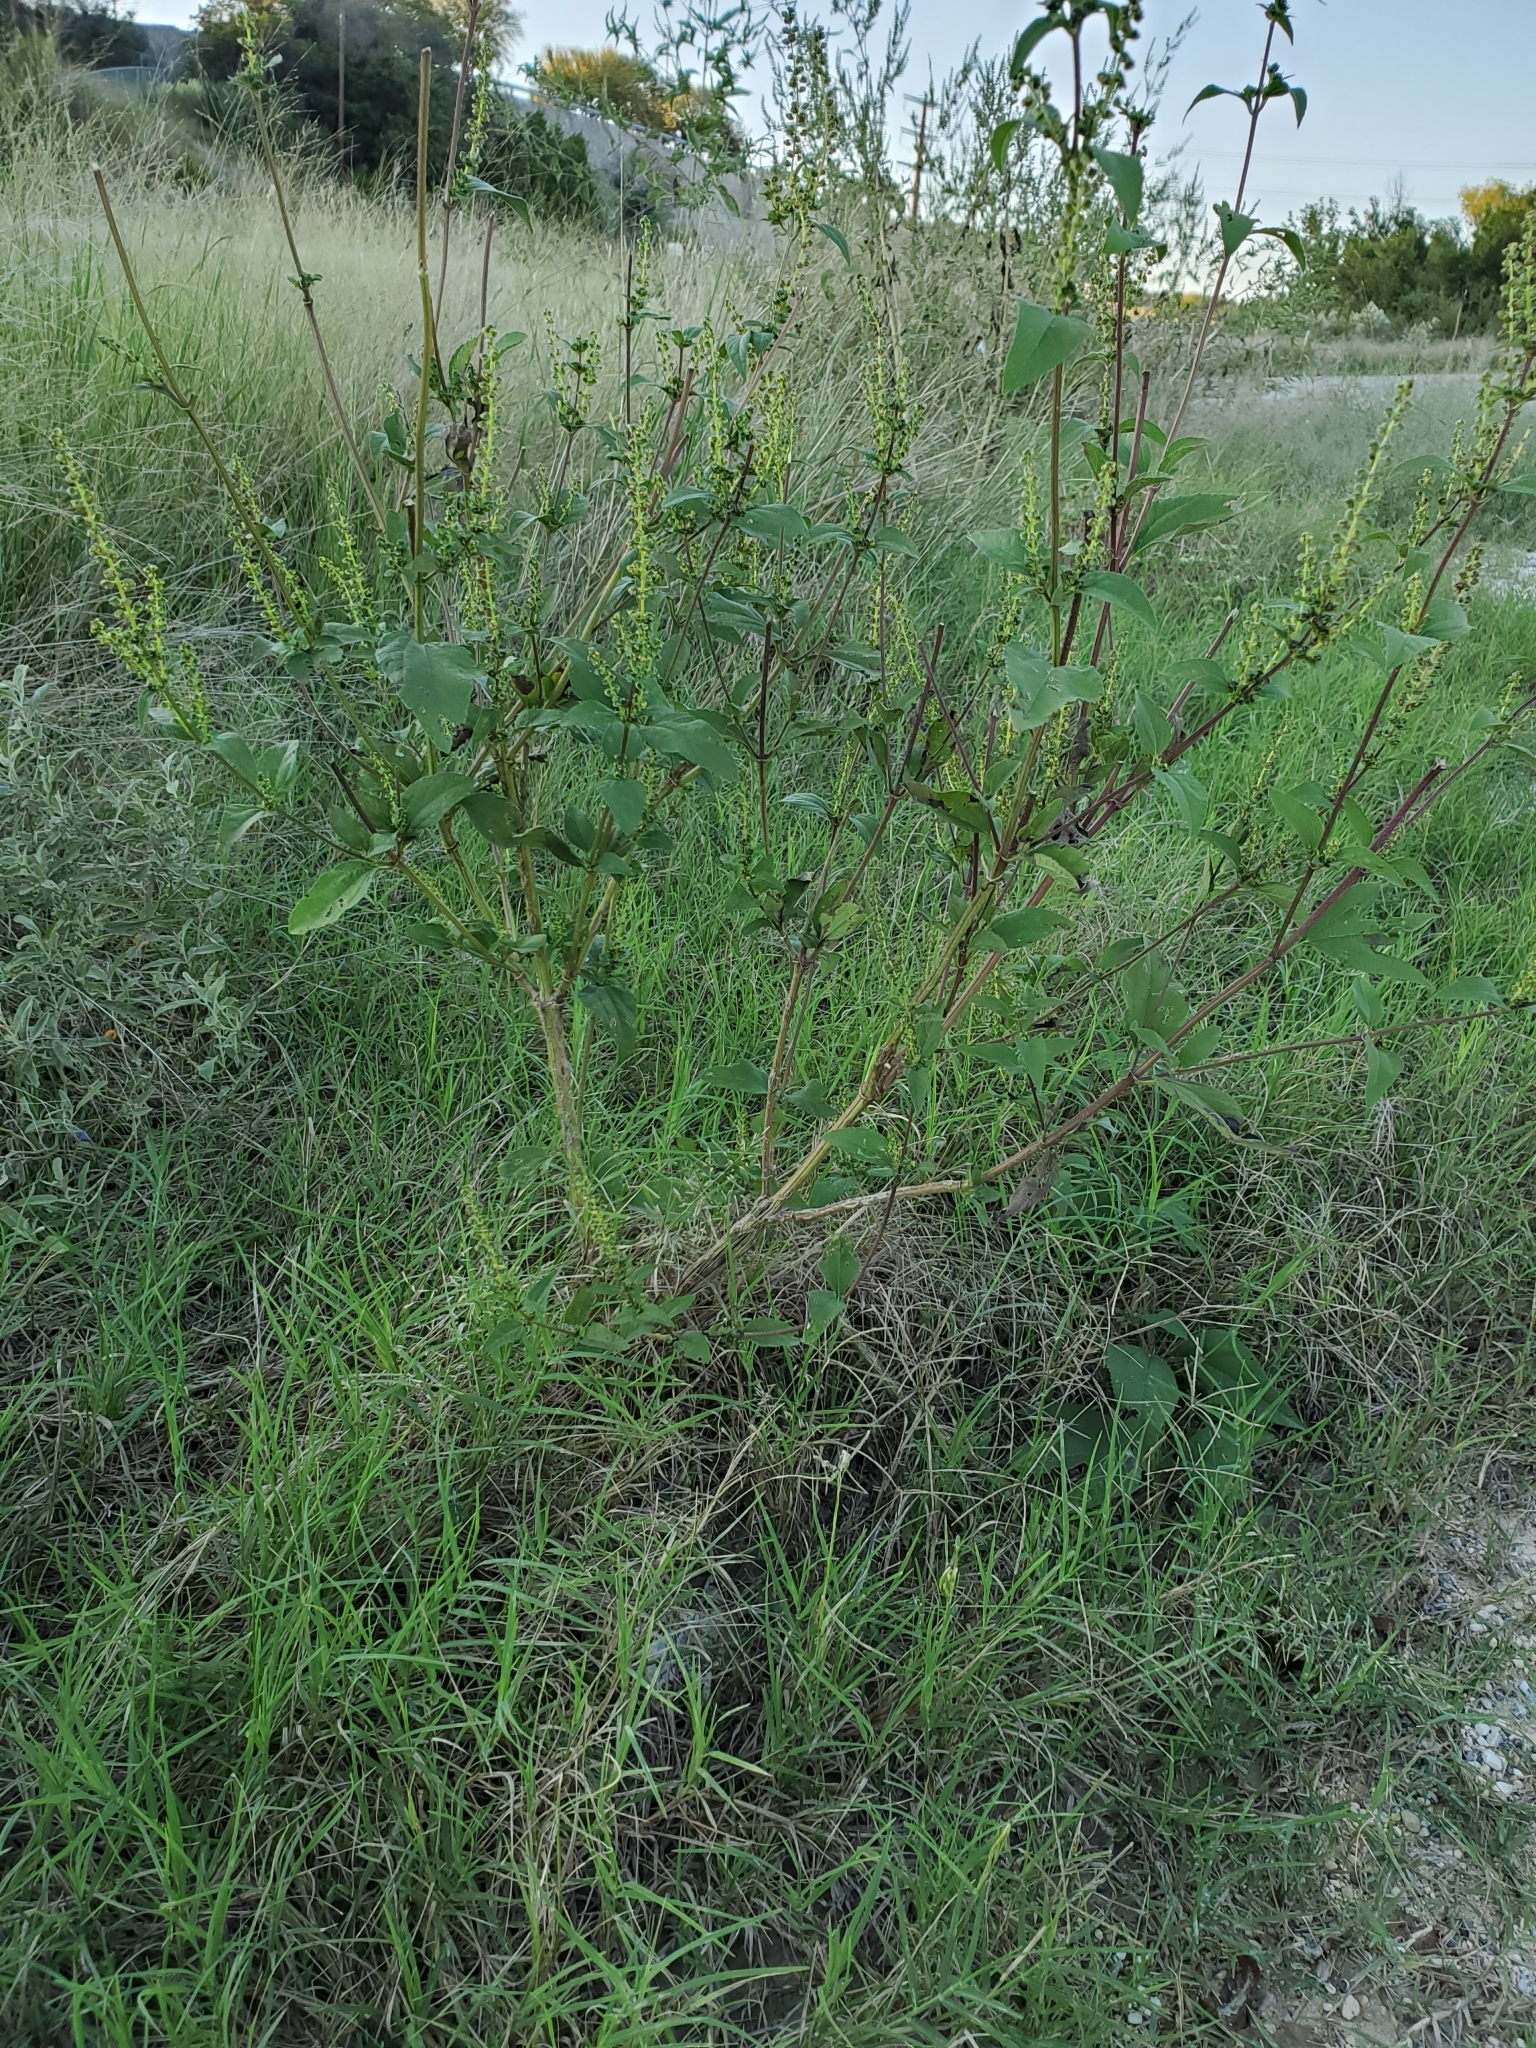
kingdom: Plantae
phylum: Tracheophyta
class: Magnoliopsida
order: Asterales
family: Asteraceae
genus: Ambrosia
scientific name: Ambrosia trifida
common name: Giant ragweed
